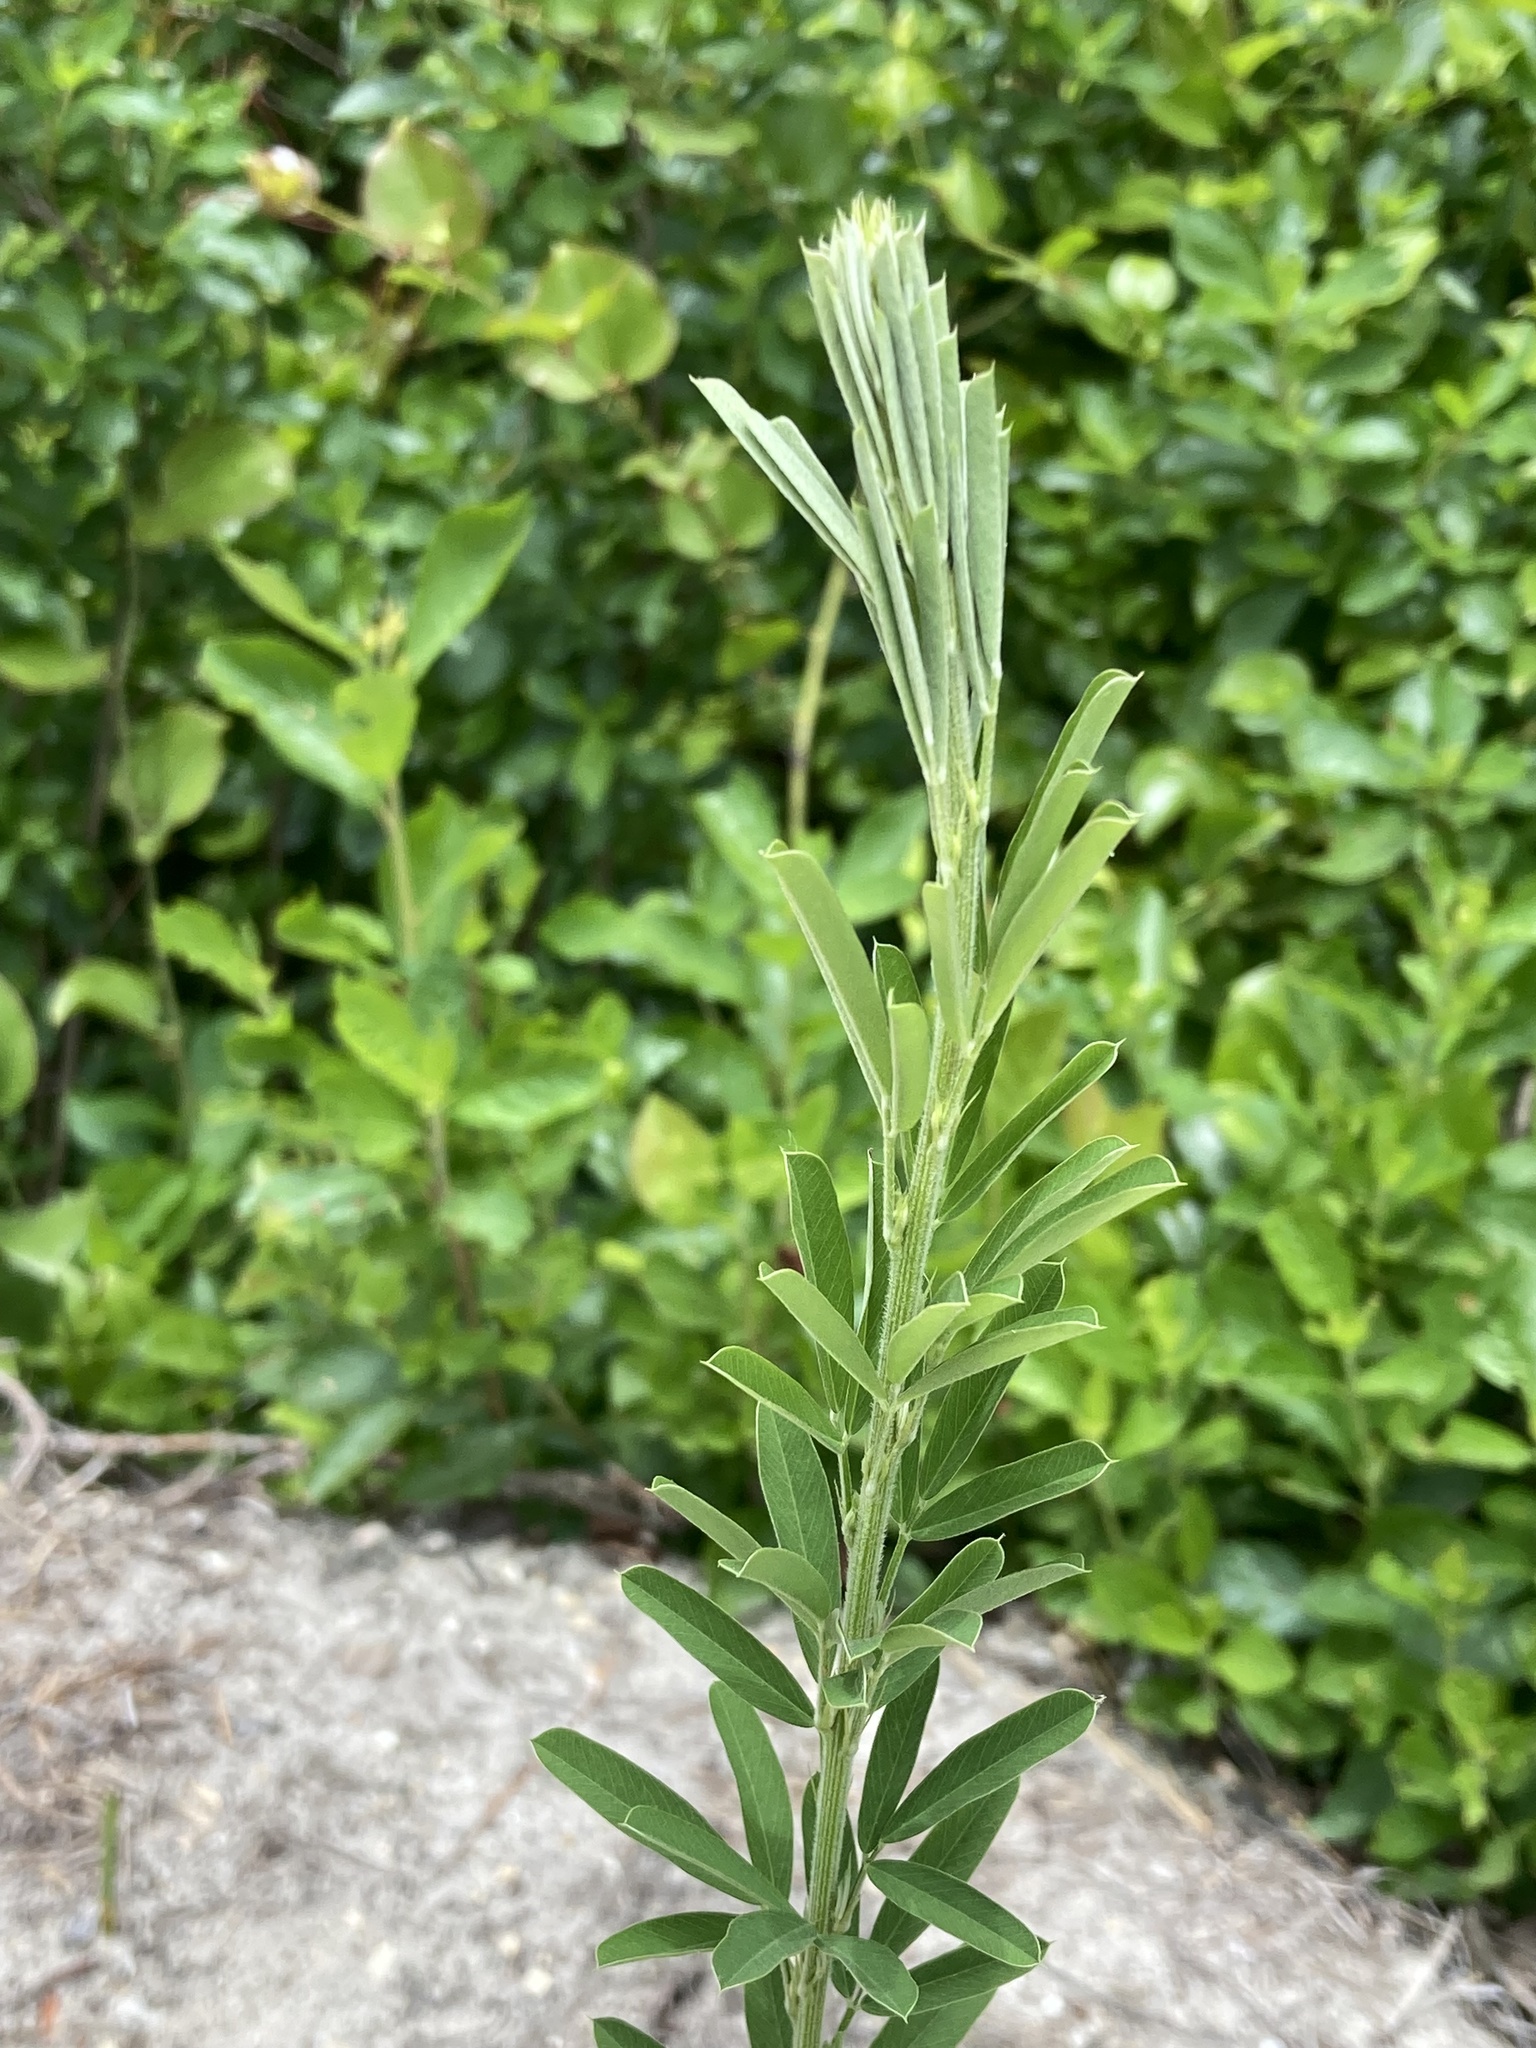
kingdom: Plantae
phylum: Tracheophyta
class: Magnoliopsida
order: Fabales
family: Fabaceae
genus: Lespedeza
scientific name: Lespedeza cuneata
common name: Chinese bush-clover
